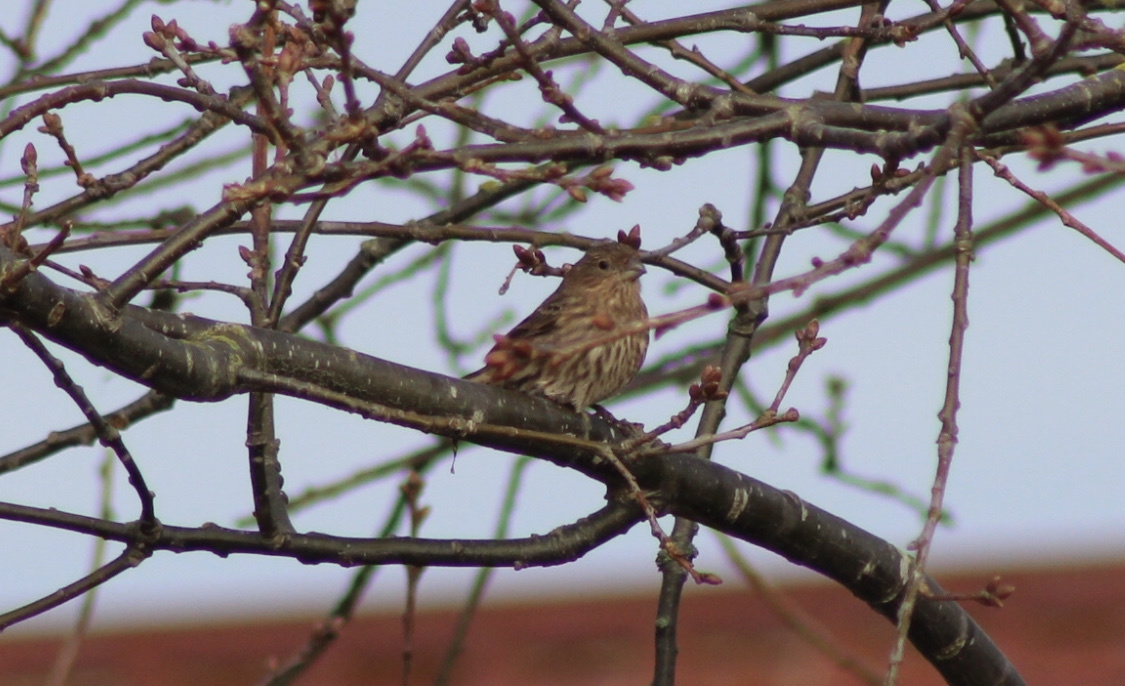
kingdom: Animalia
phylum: Chordata
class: Aves
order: Passeriformes
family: Fringillidae
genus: Haemorhous
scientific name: Haemorhous mexicanus
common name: House finch
